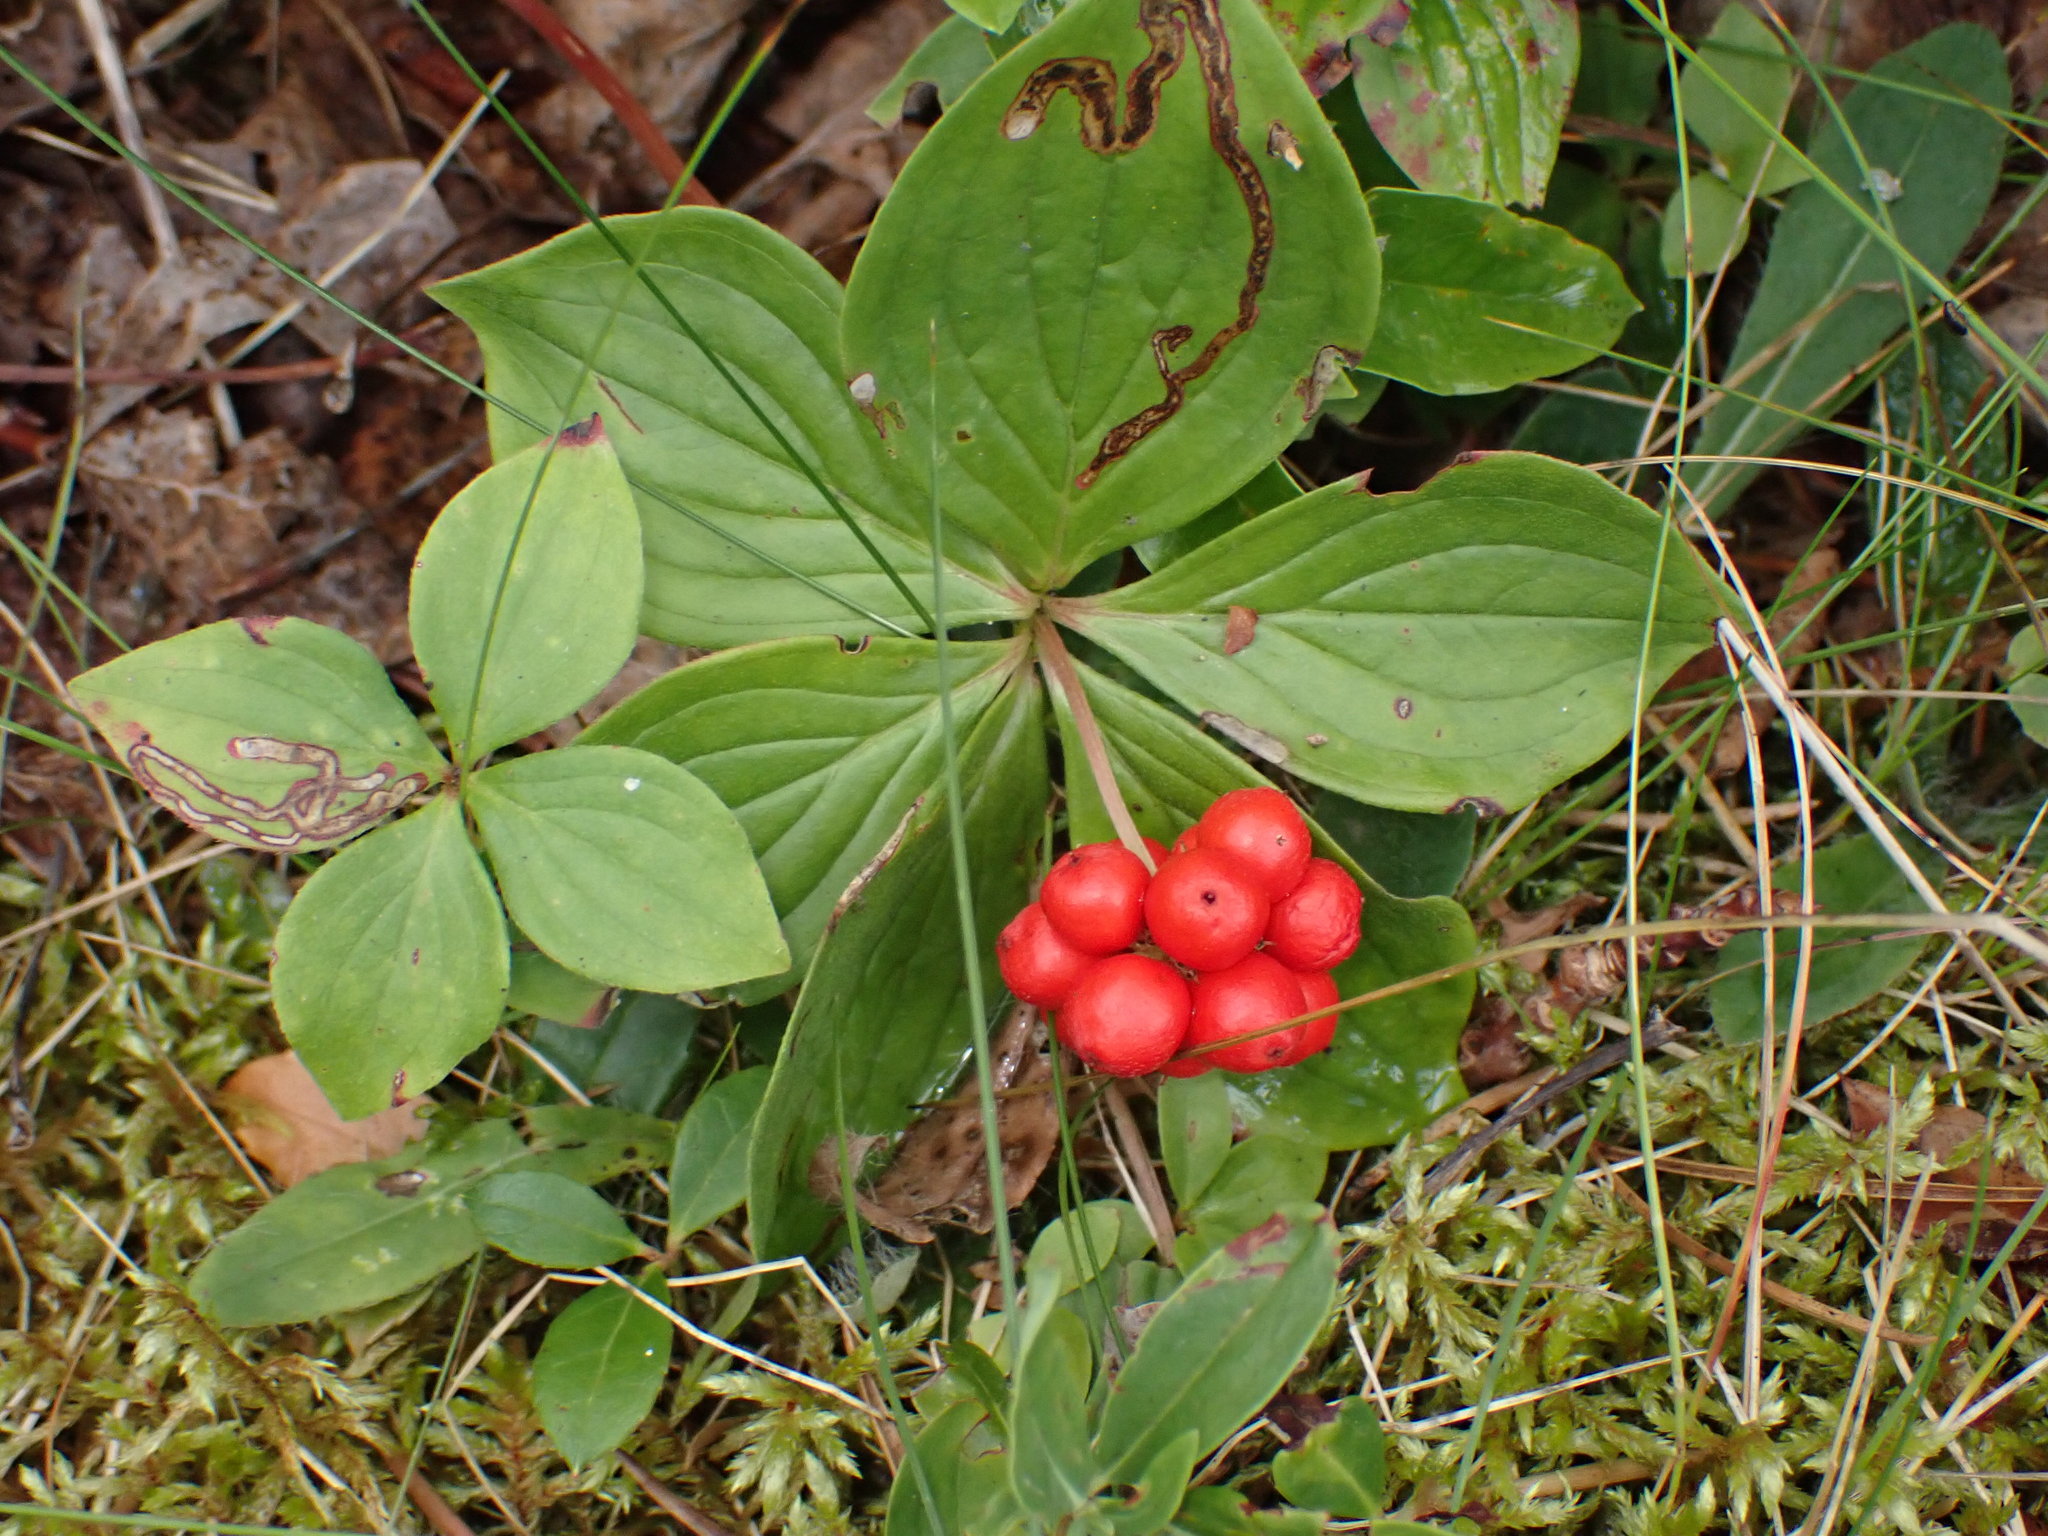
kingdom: Plantae
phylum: Tracheophyta
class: Magnoliopsida
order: Cornales
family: Cornaceae
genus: Cornus
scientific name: Cornus canadensis
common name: Creeping dogwood
